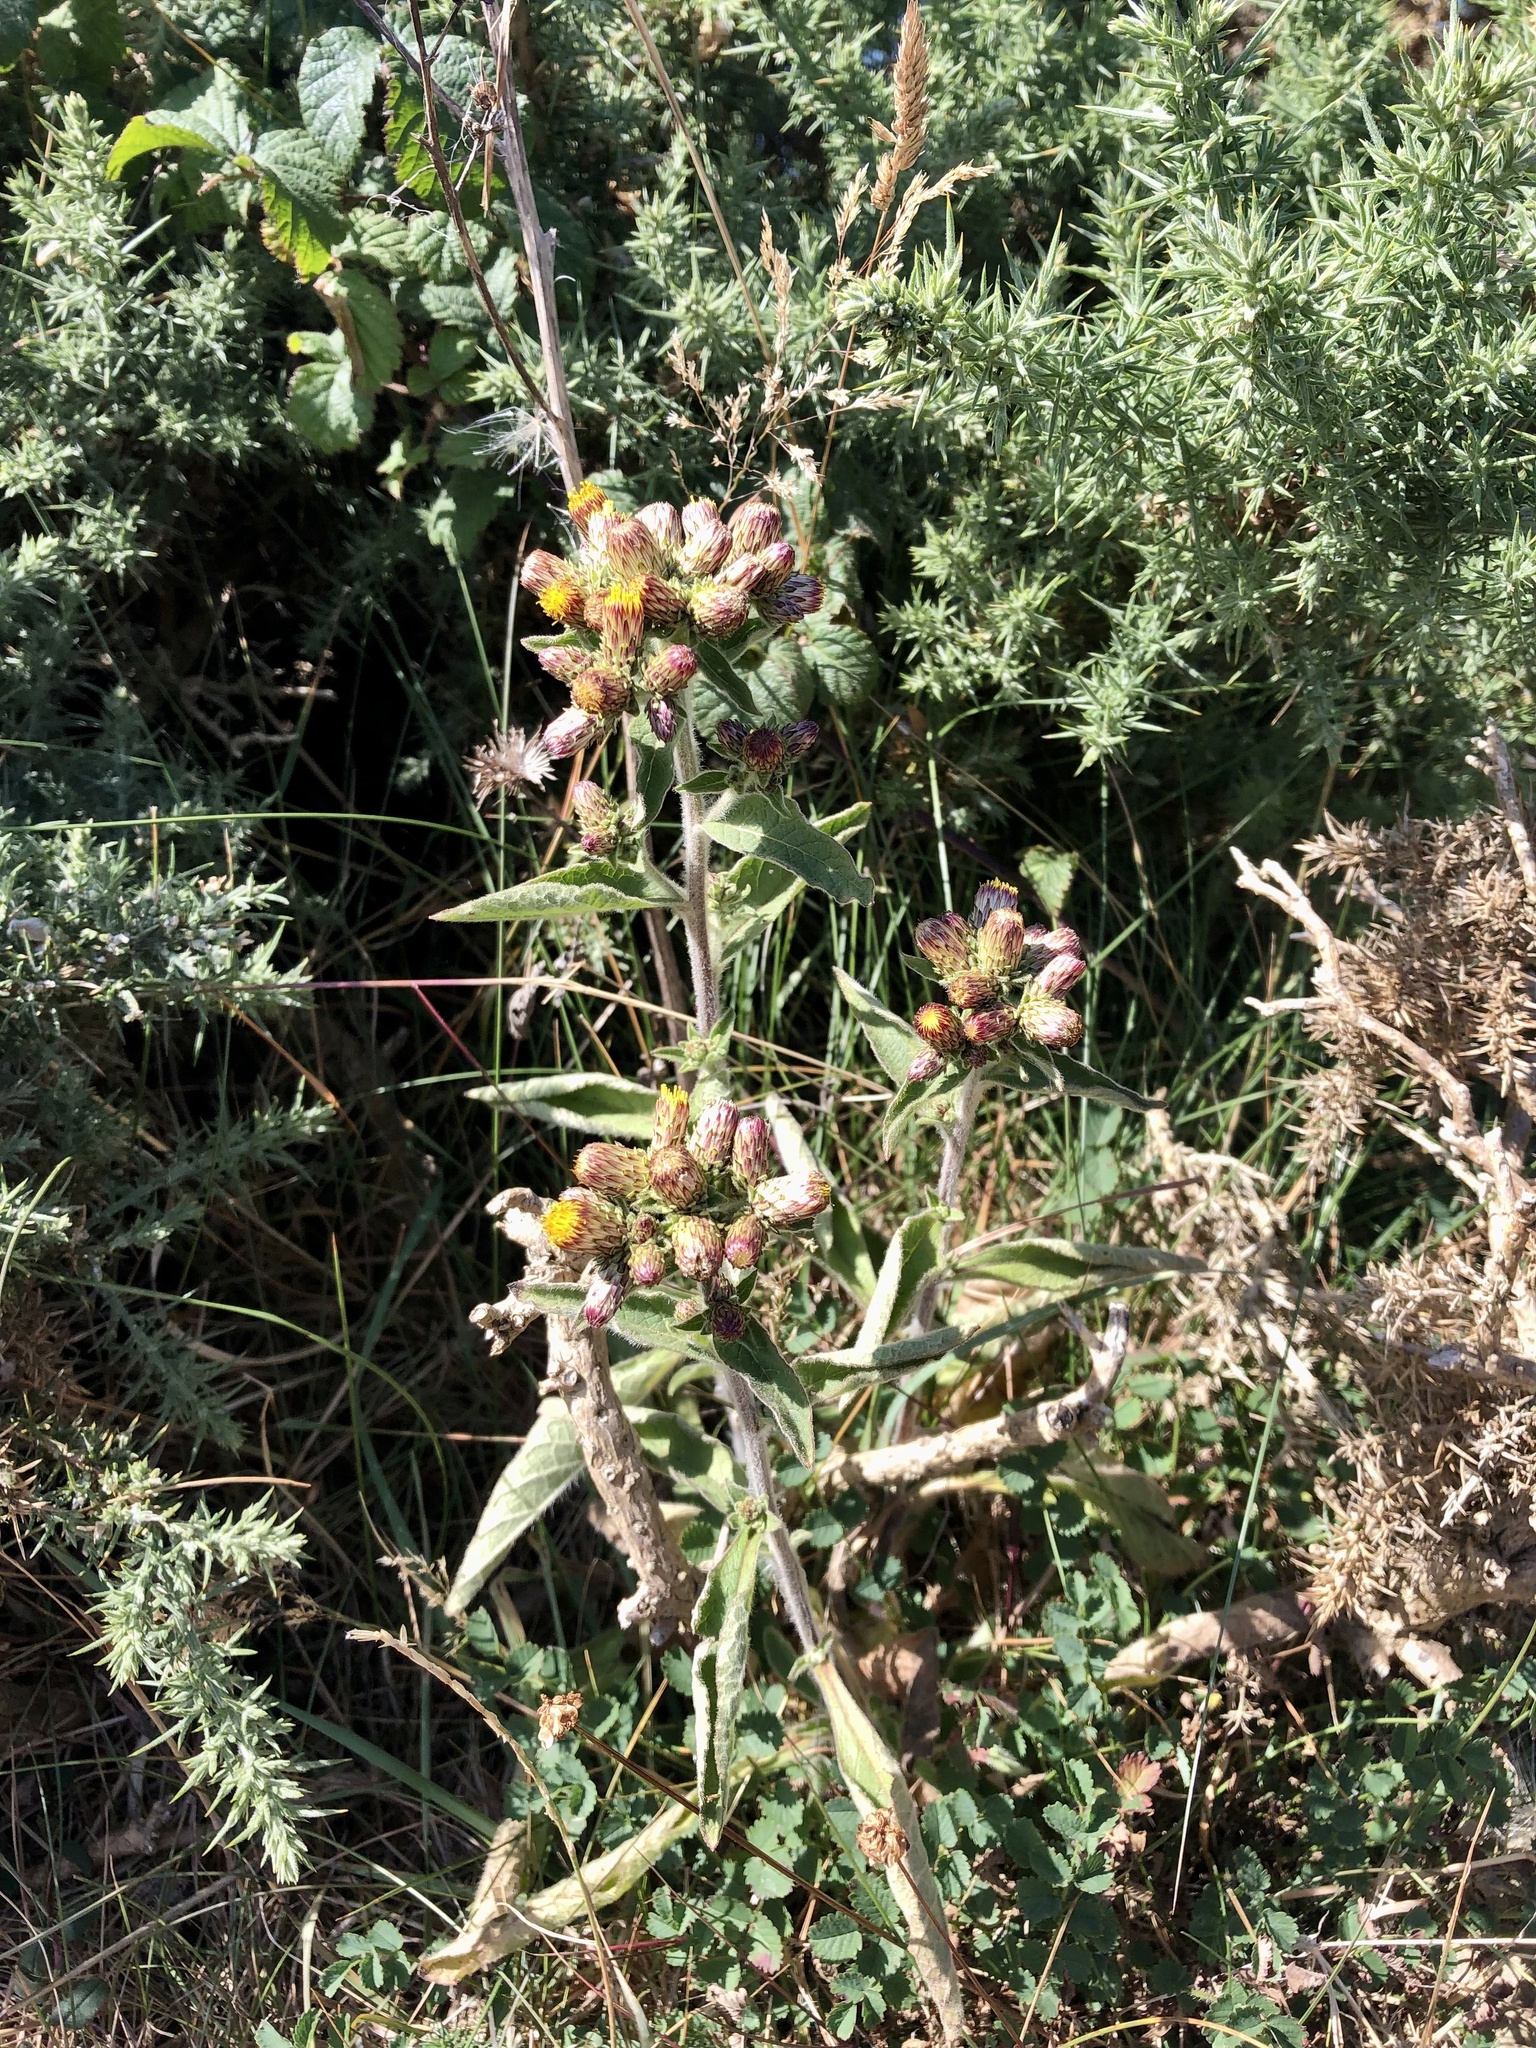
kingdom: Plantae
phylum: Tracheophyta
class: Magnoliopsida
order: Asterales
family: Asteraceae
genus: Pentanema
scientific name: Pentanema squarrosum
